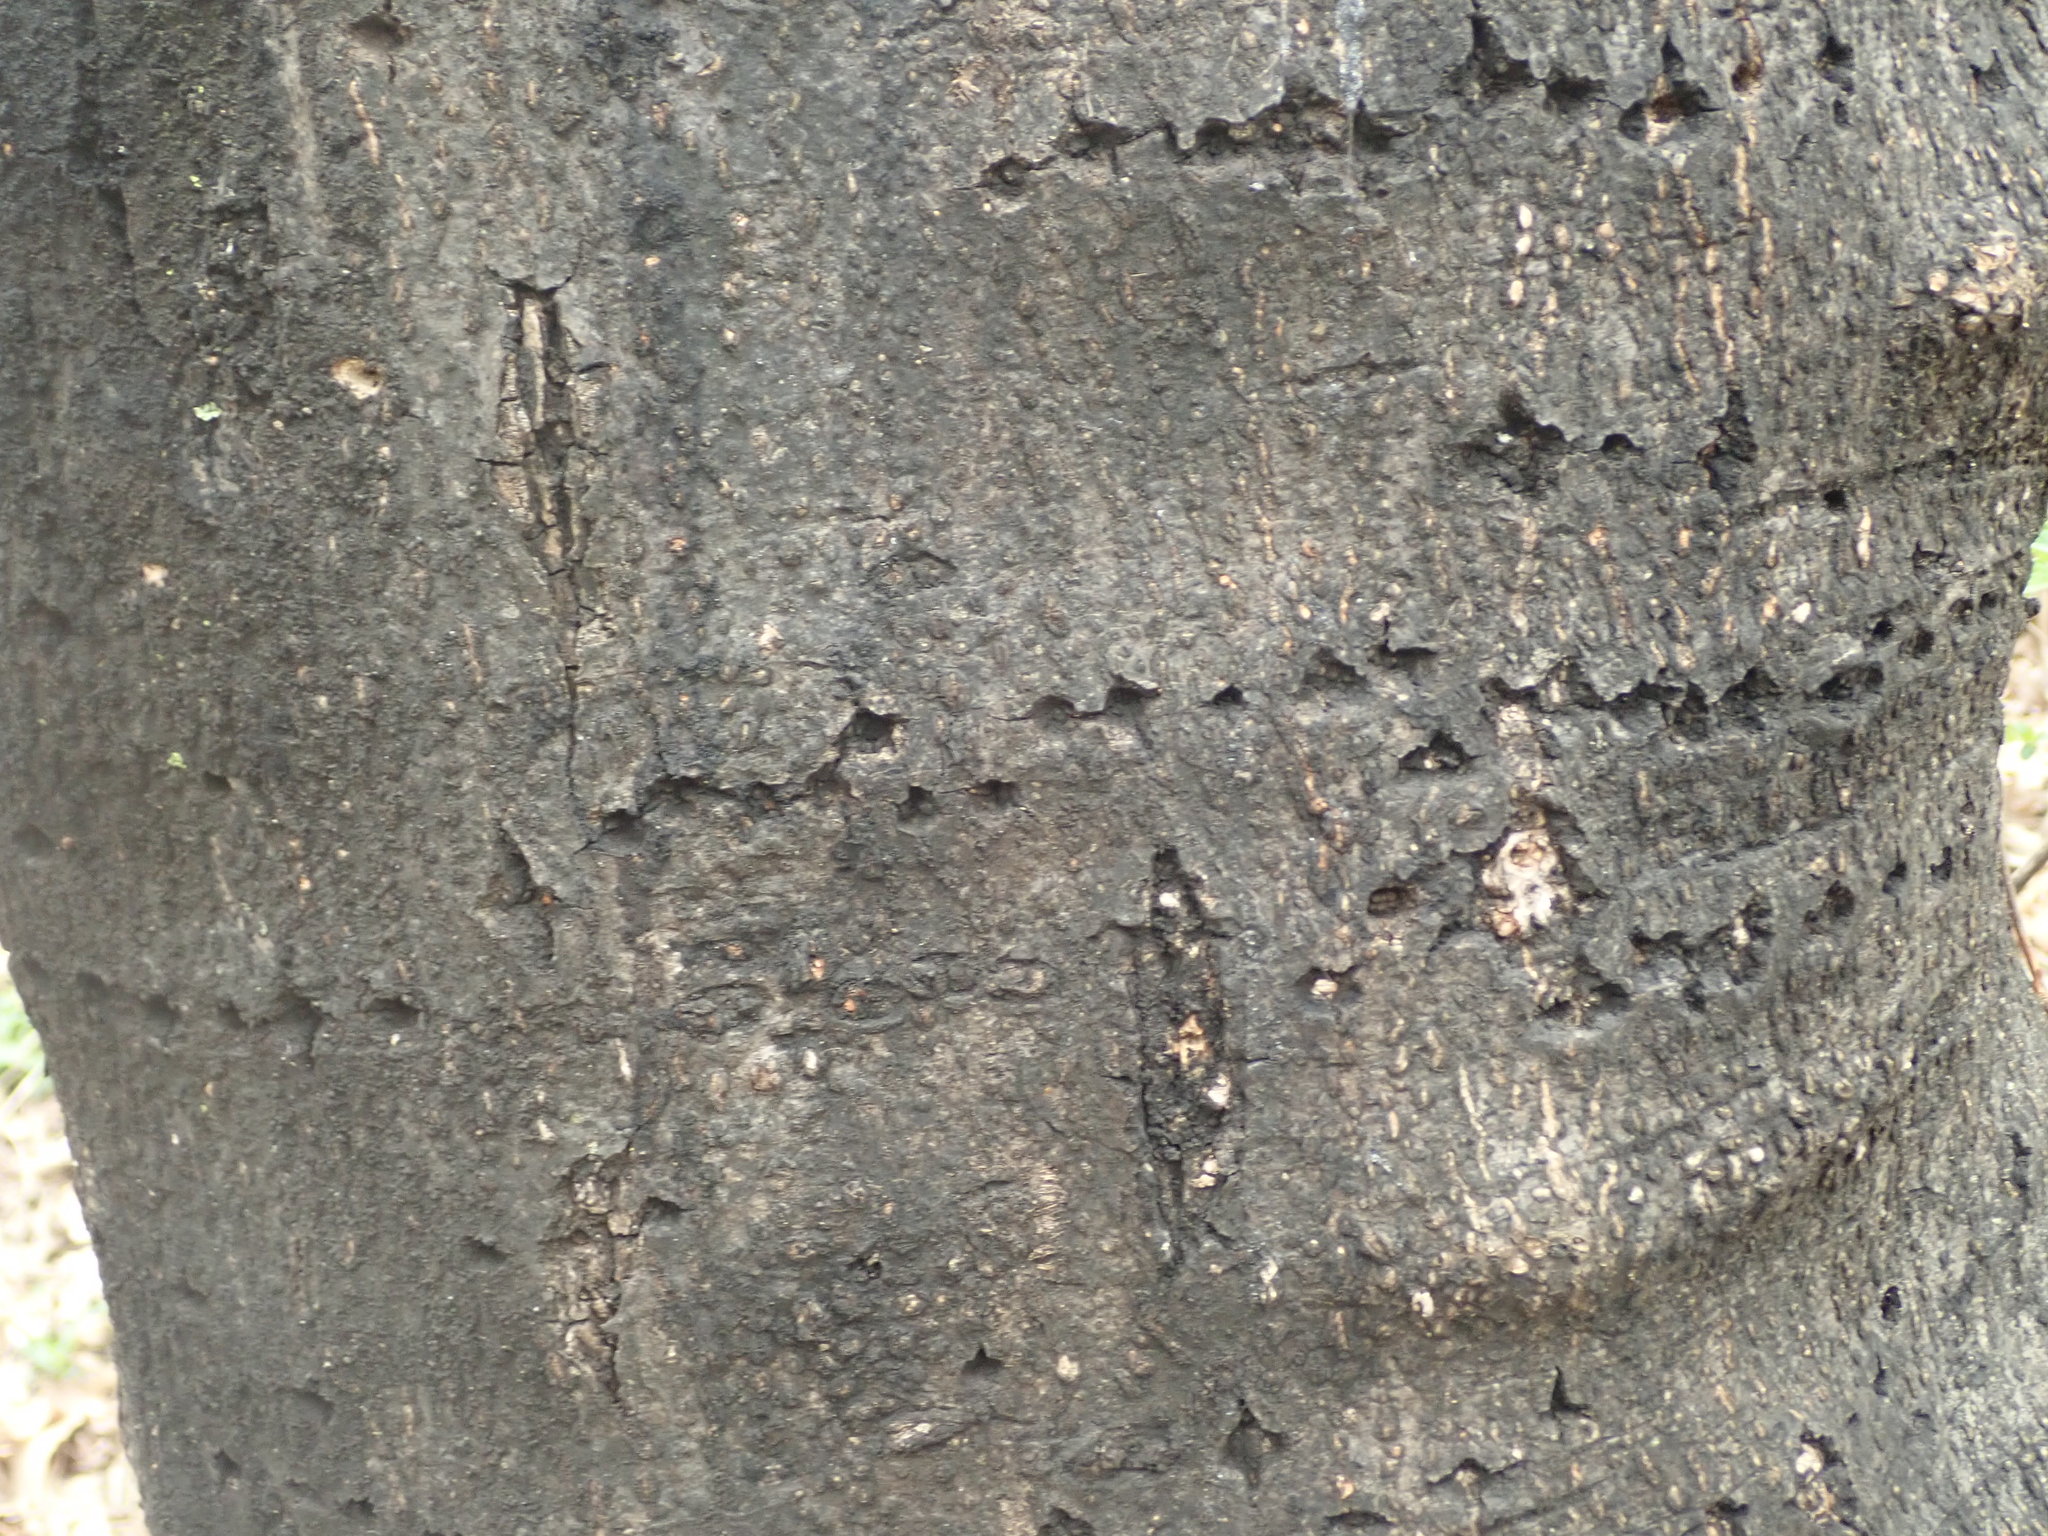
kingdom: Animalia
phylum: Chordata
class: Aves
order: Piciformes
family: Picidae
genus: Sphyrapicus
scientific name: Sphyrapicus varius
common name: Yellow-bellied sapsucker
